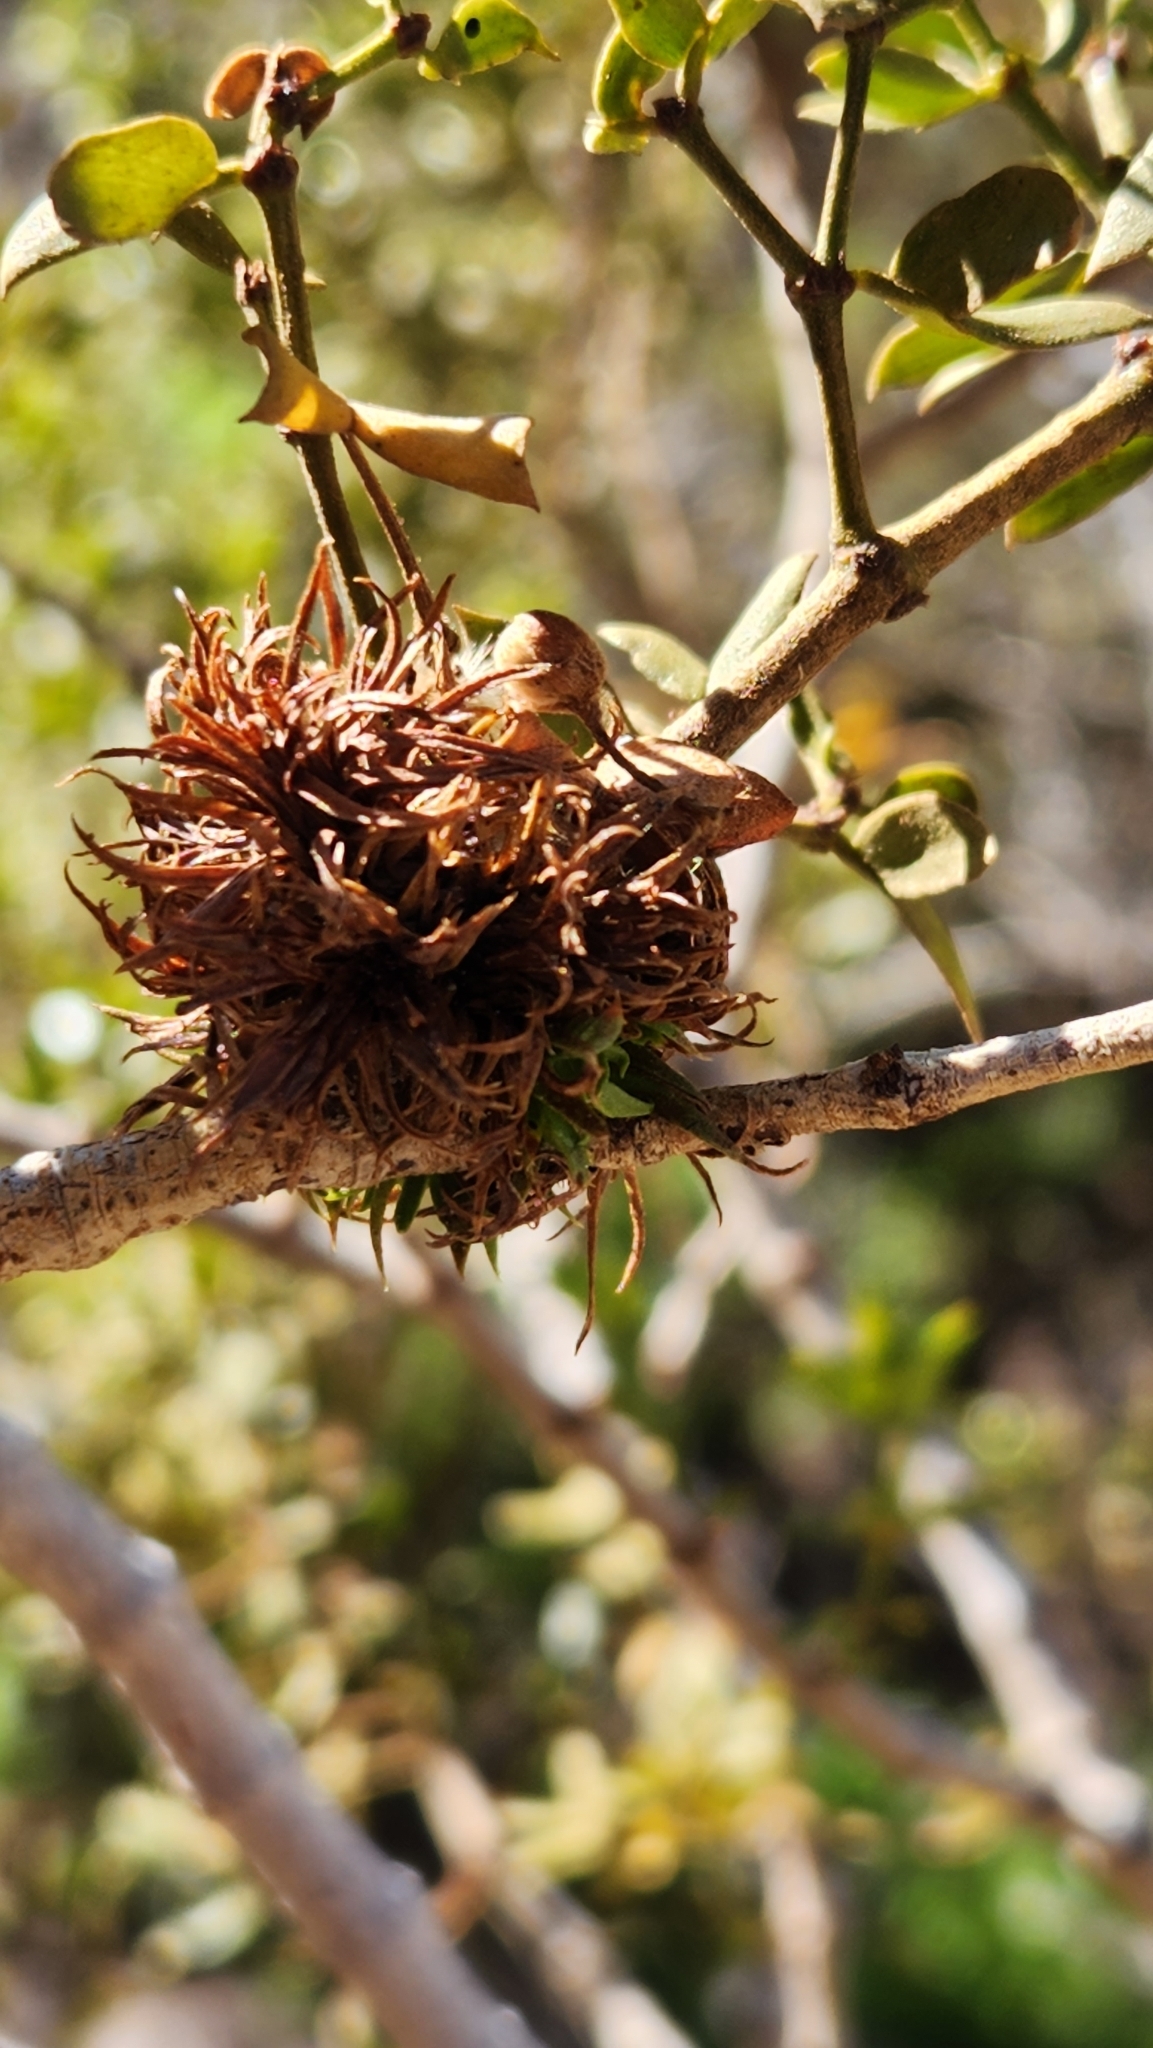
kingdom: Animalia
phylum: Arthropoda
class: Insecta
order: Diptera
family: Cecidomyiidae
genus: Asphondylia
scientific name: Asphondylia auripila
